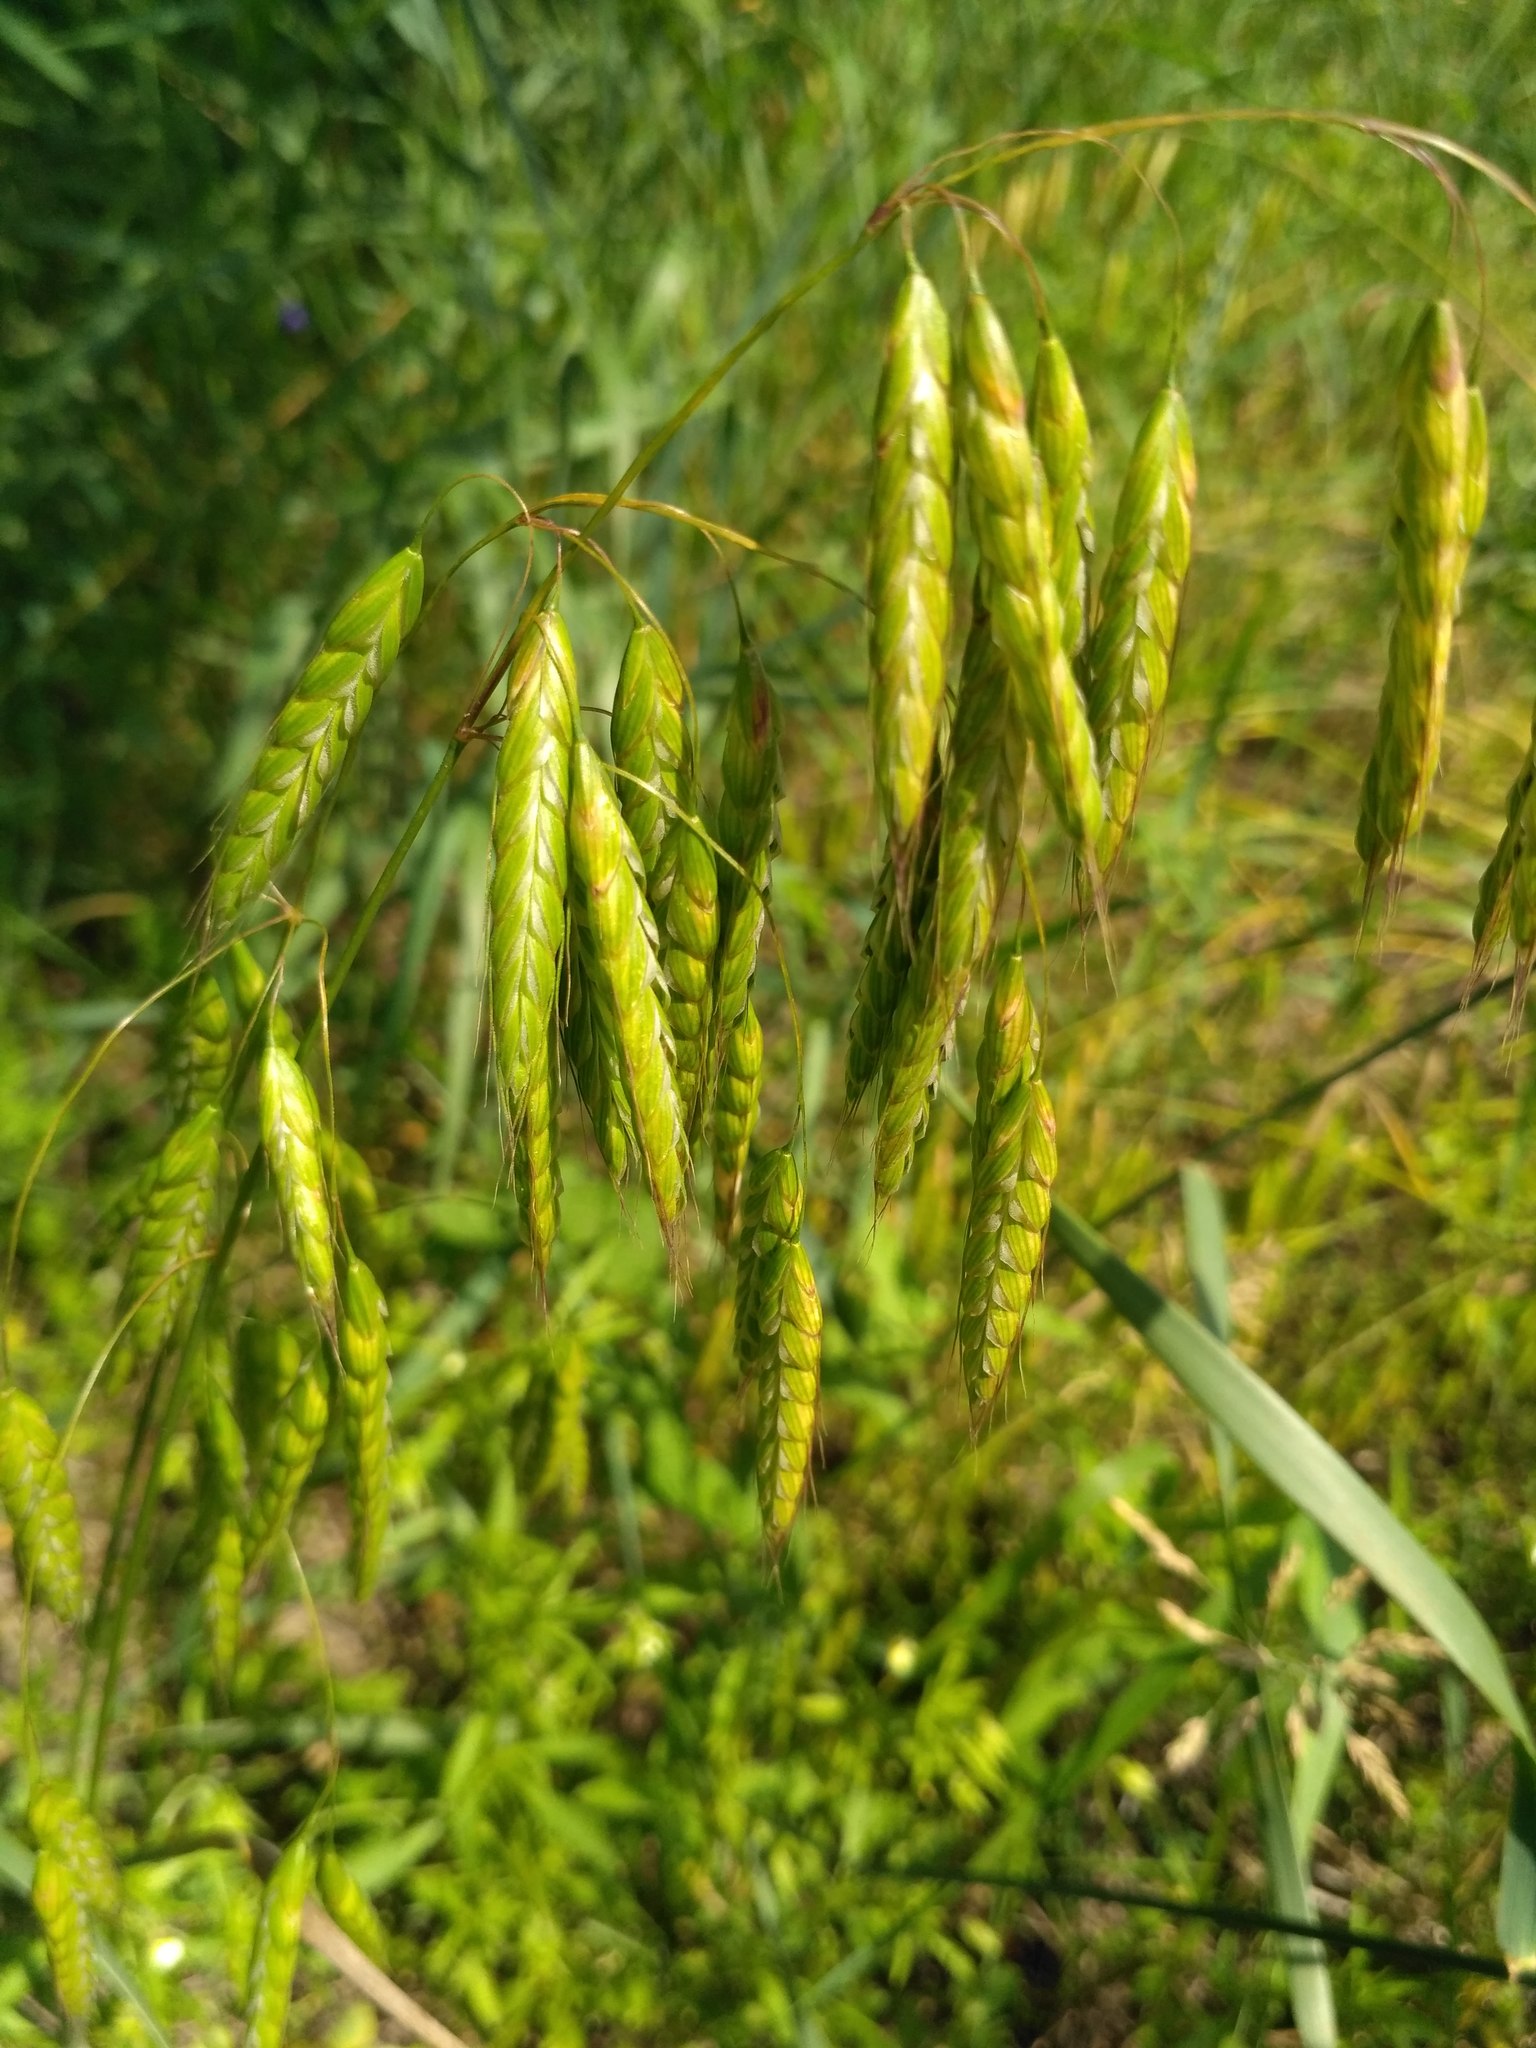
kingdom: Plantae
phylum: Tracheophyta
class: Liliopsida
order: Poales
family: Poaceae
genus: Bromus
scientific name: Bromus squarrosus
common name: Corn brome
